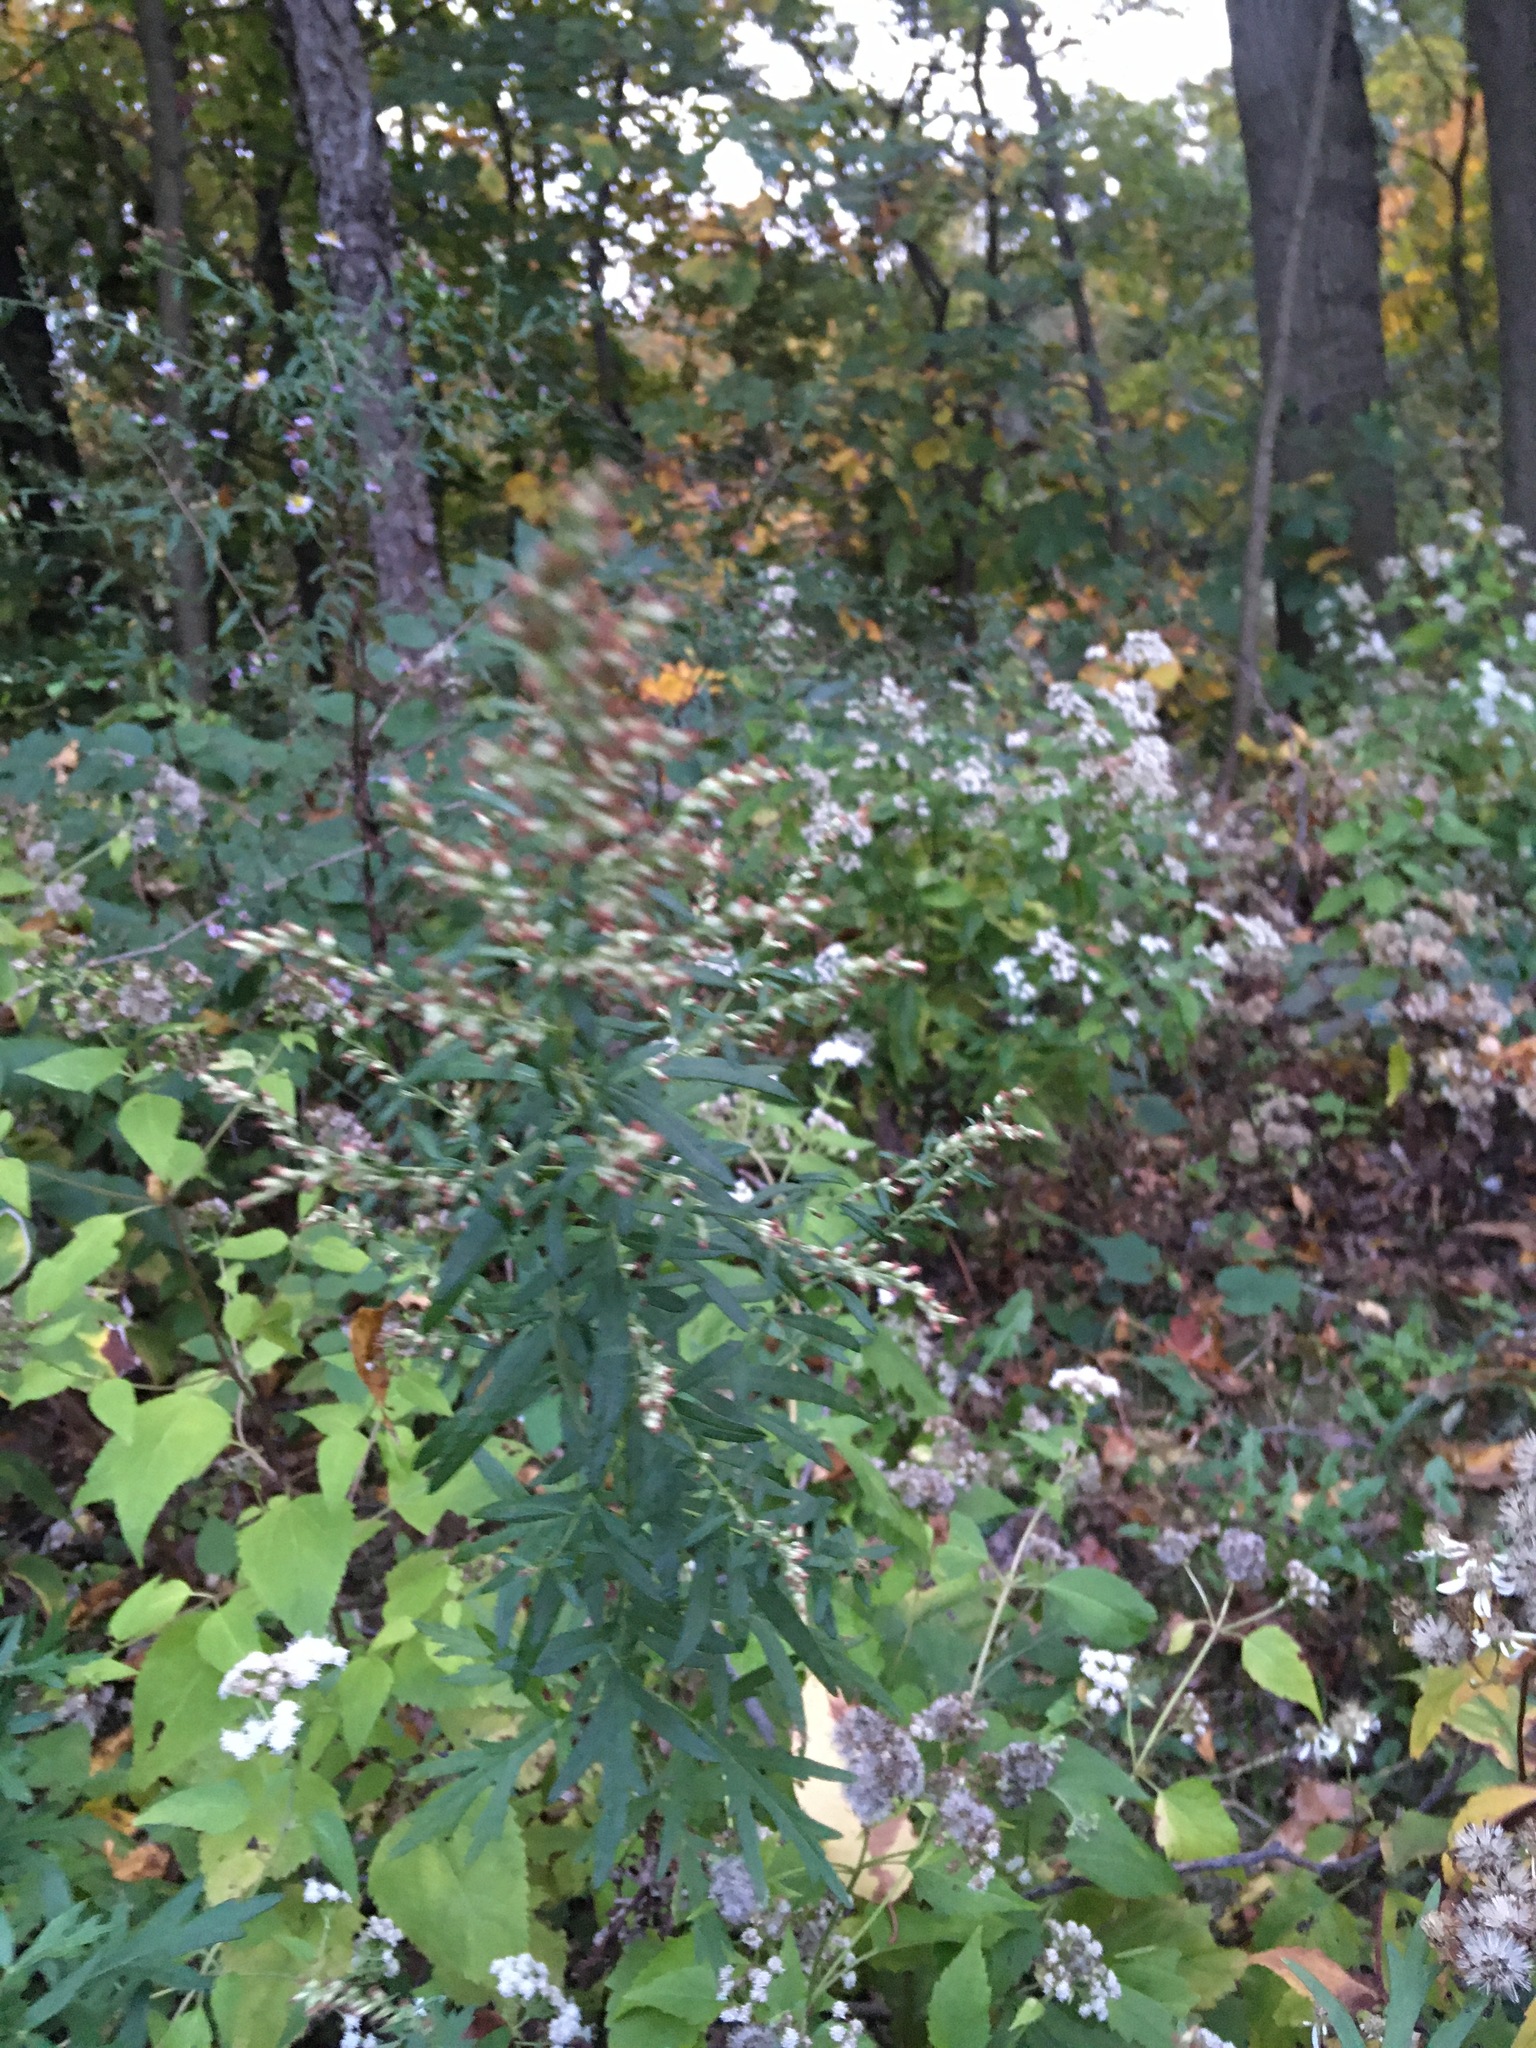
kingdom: Plantae
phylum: Tracheophyta
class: Magnoliopsida
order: Asterales
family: Asteraceae
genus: Artemisia
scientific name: Artemisia vulgaris
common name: Mugwort
